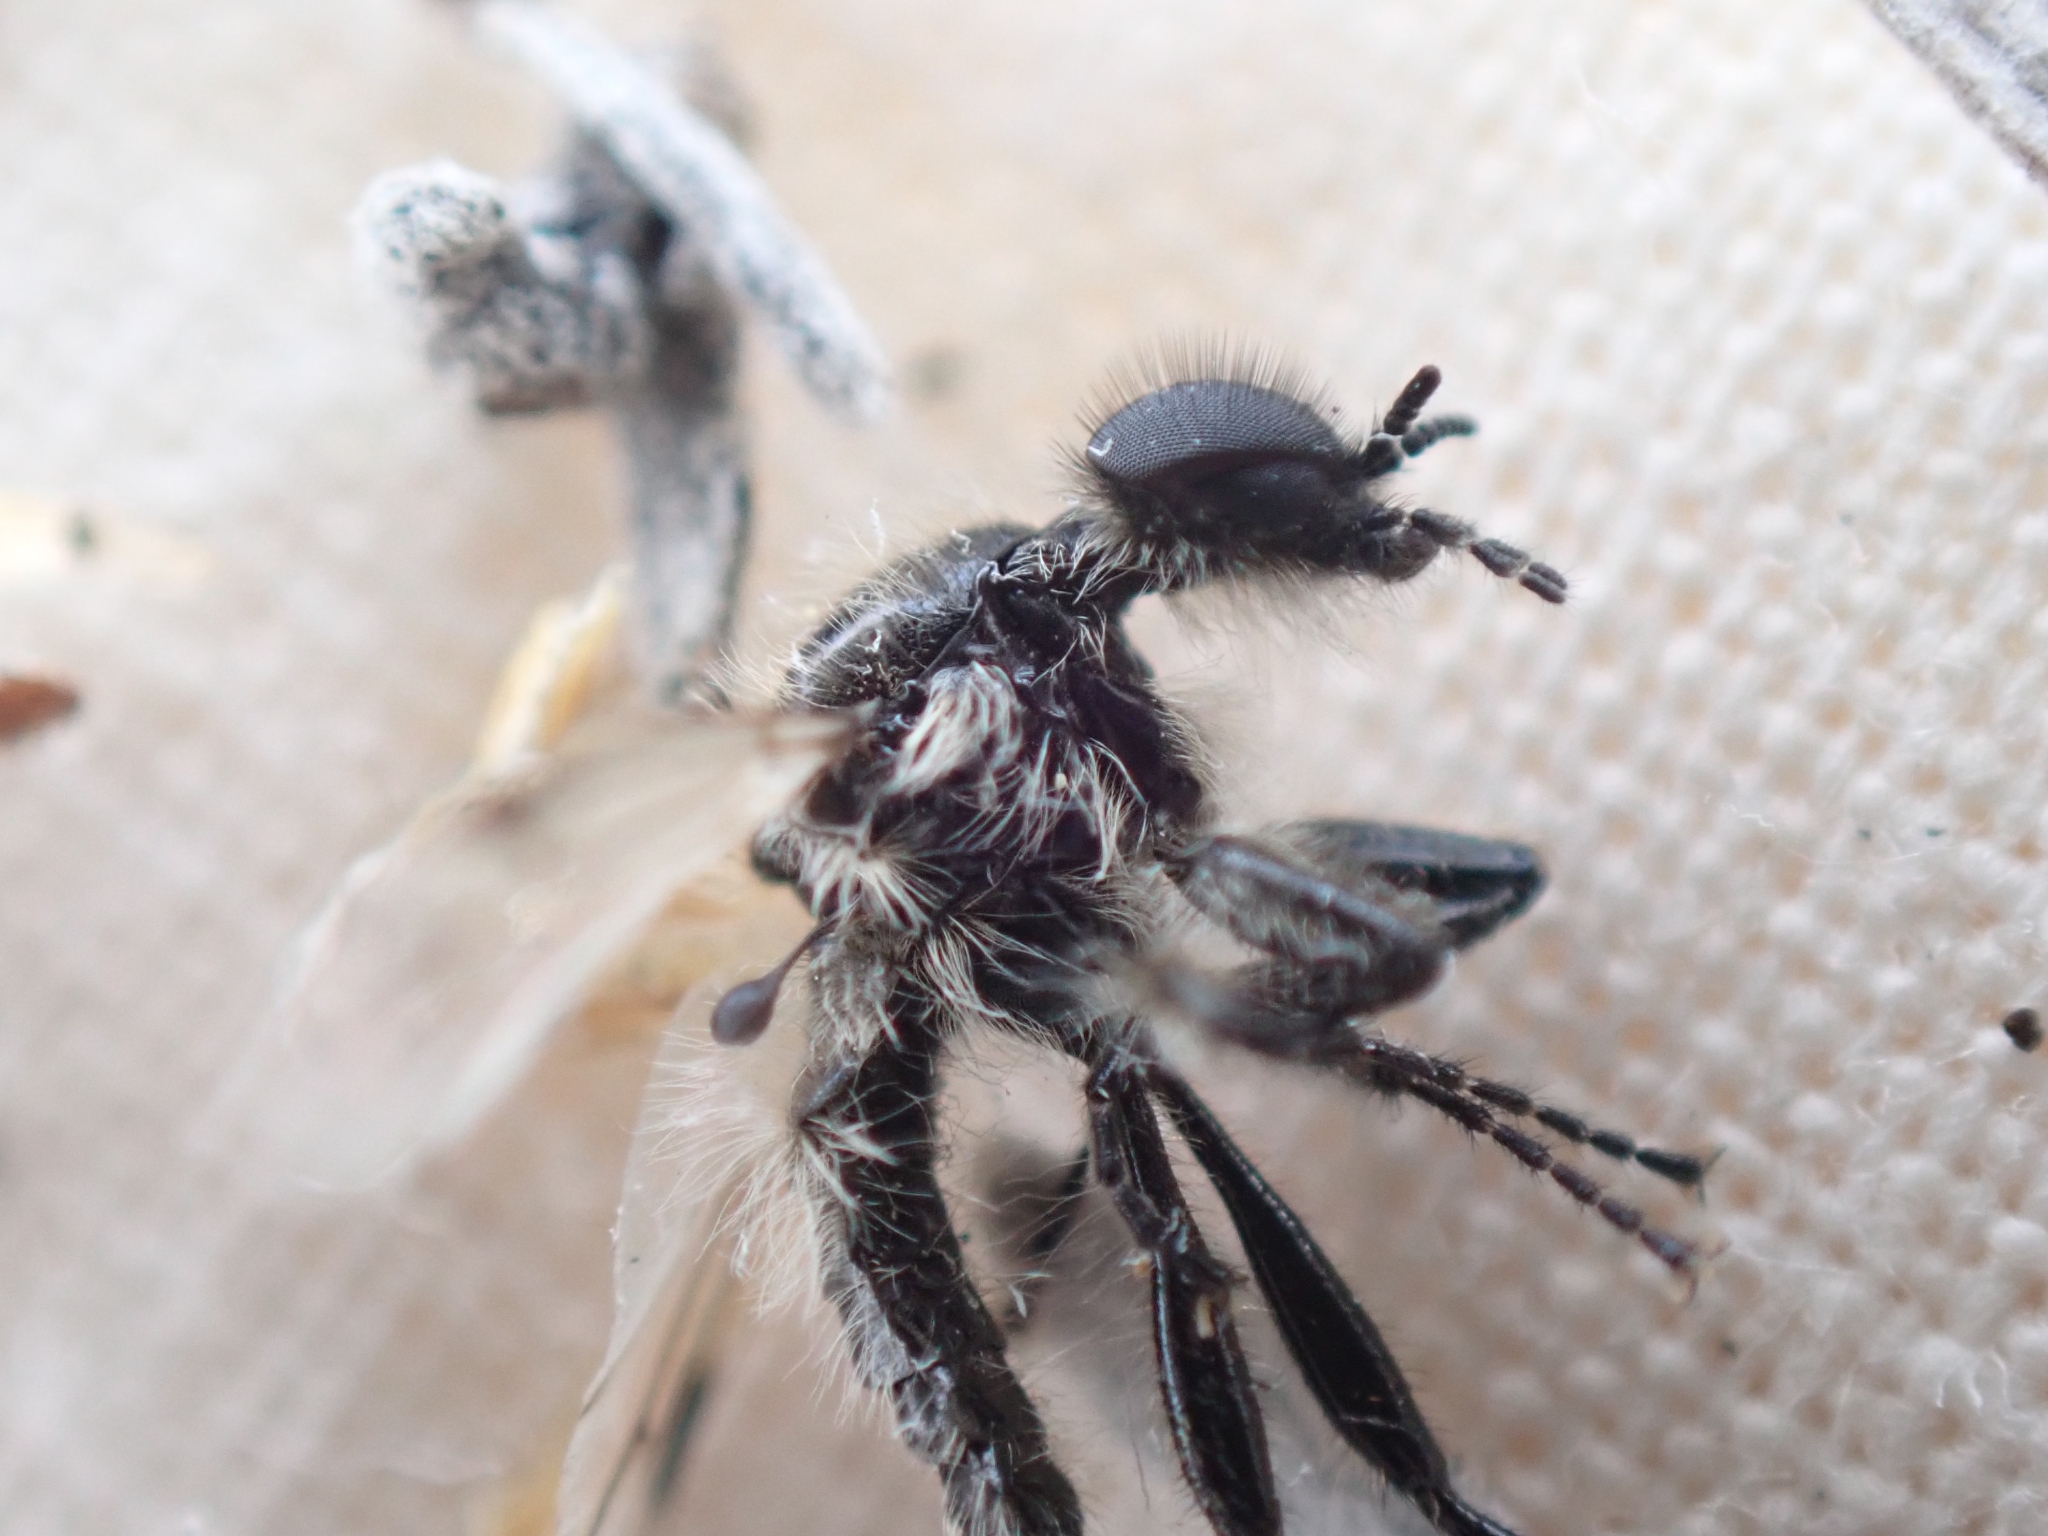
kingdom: Animalia
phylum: Arthropoda
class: Insecta
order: Diptera
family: Bibionidae
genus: Bibio
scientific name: Bibio albipennis
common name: White-winged march fly
